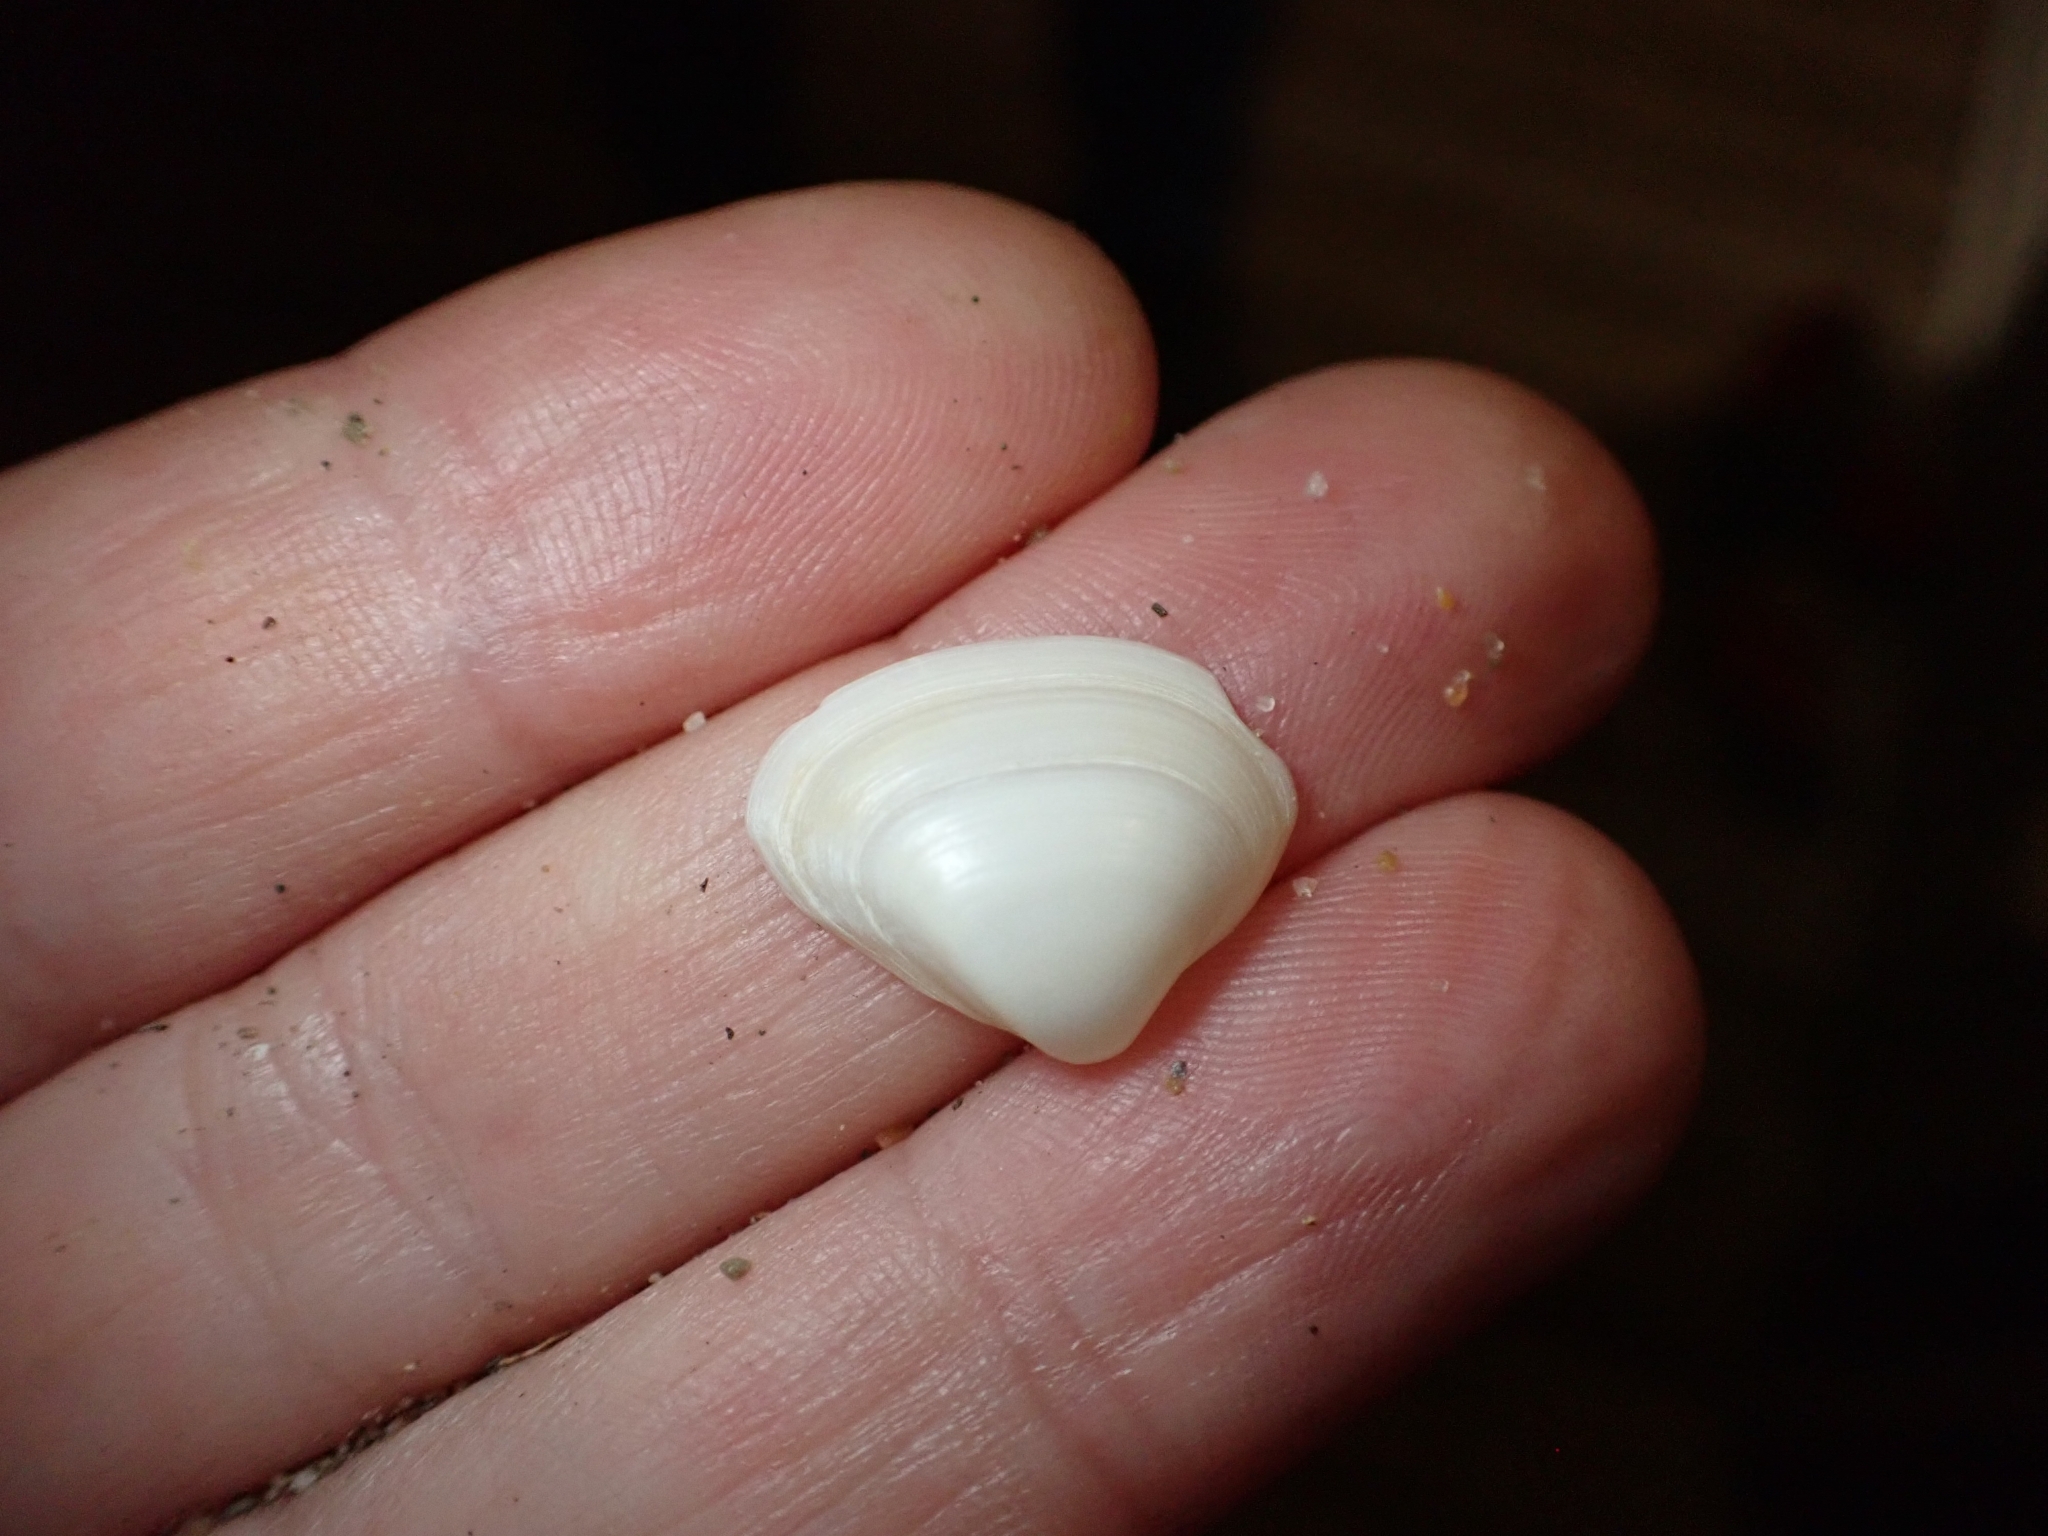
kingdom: Animalia
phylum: Mollusca
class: Bivalvia
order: Venerida
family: Mactridae
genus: Spisula
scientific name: Spisula subtruncata
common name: Cut trough shell
